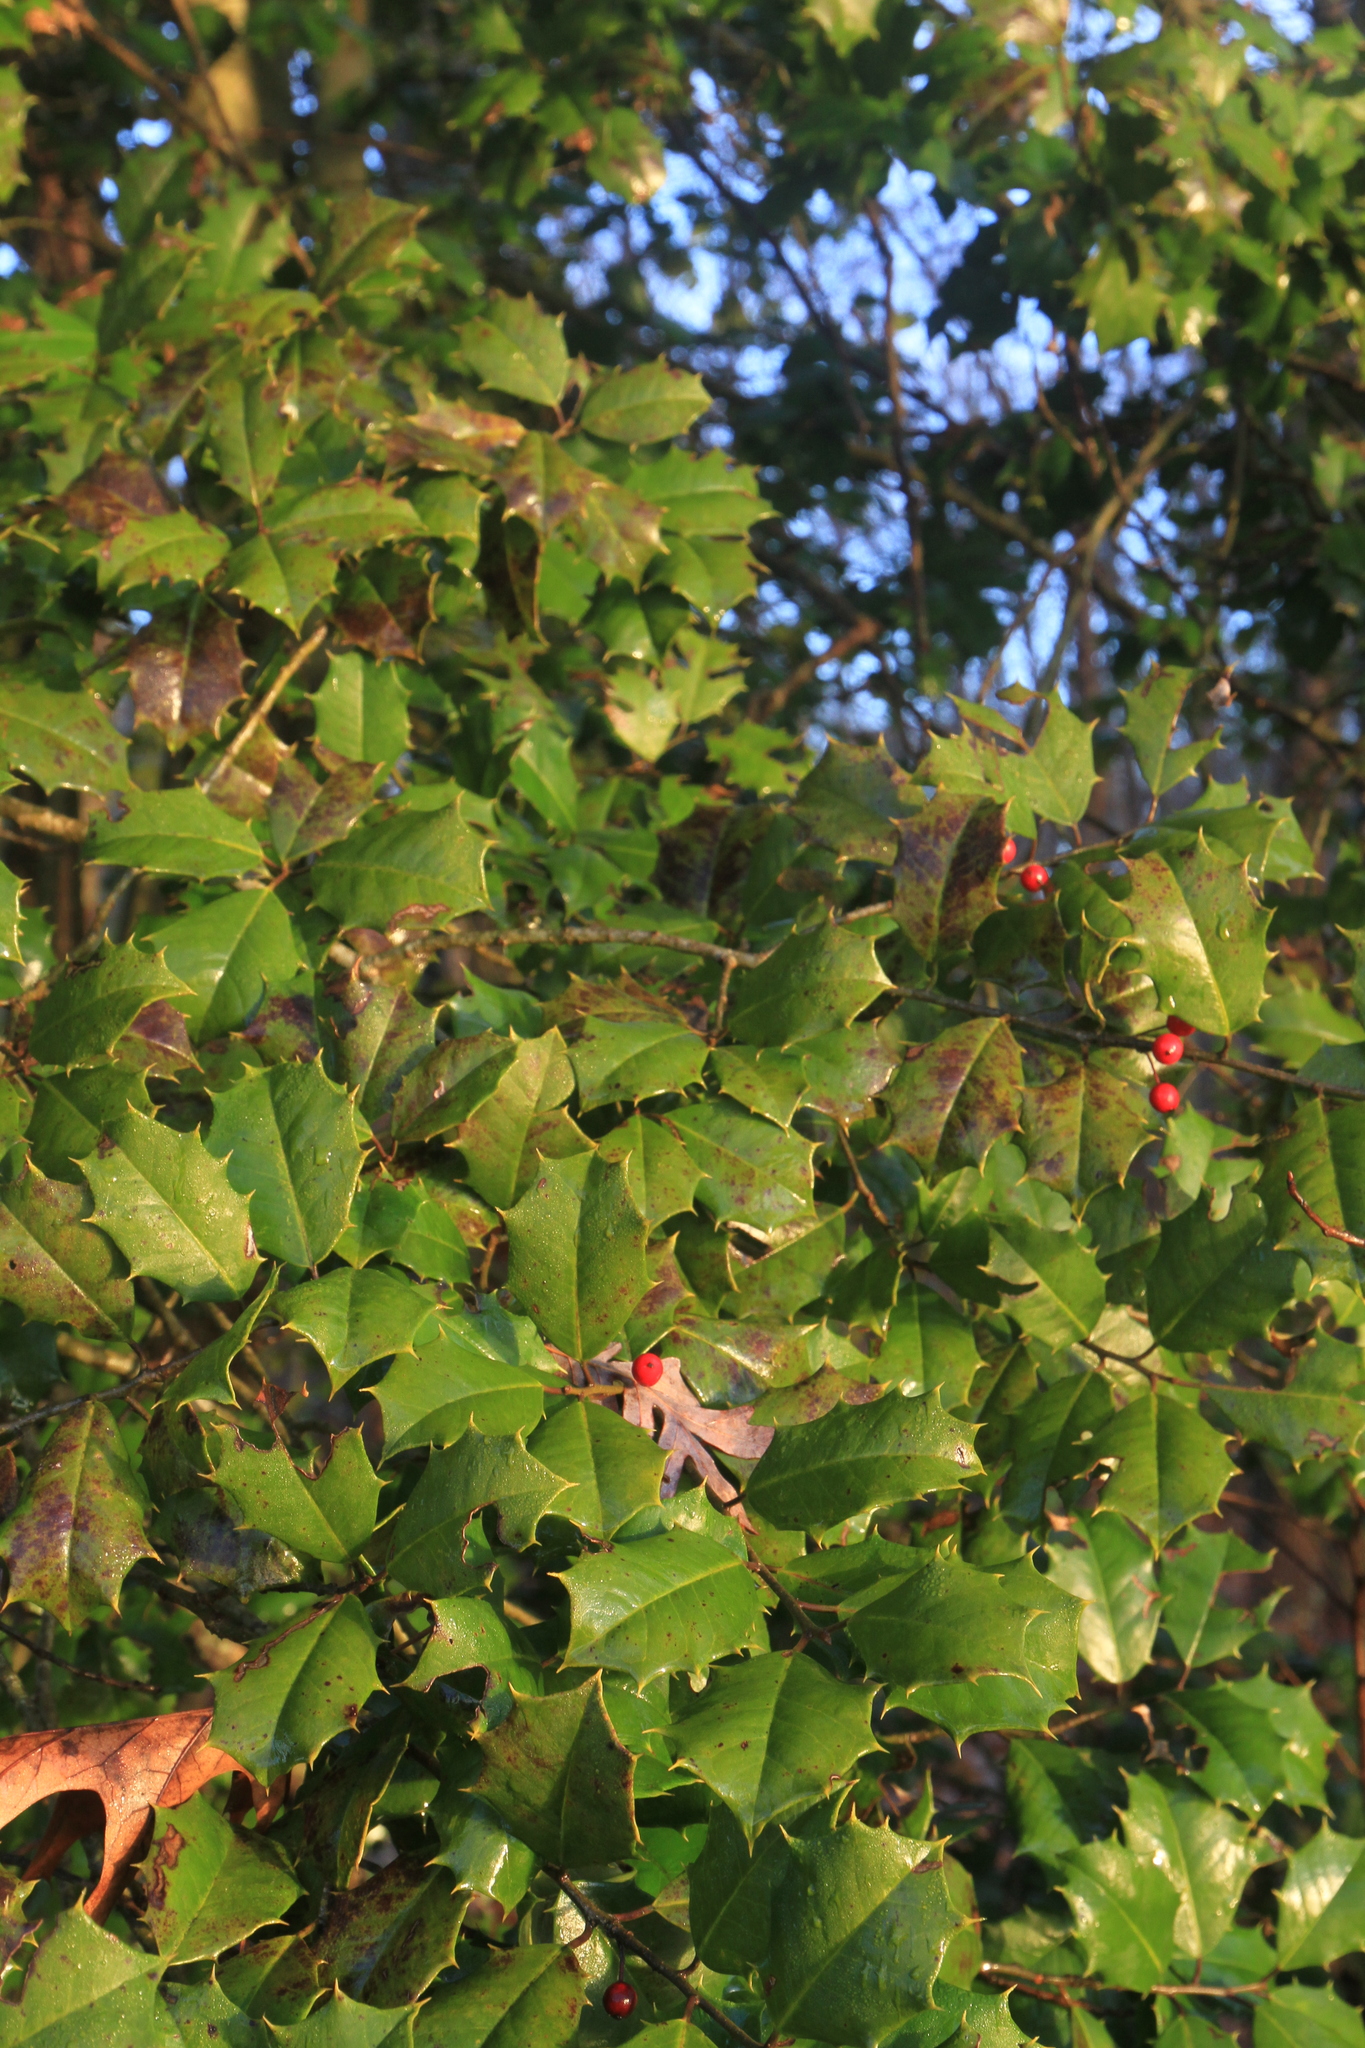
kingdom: Plantae
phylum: Tracheophyta
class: Magnoliopsida
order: Aquifoliales
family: Aquifoliaceae
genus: Ilex
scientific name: Ilex opaca
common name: American holly
